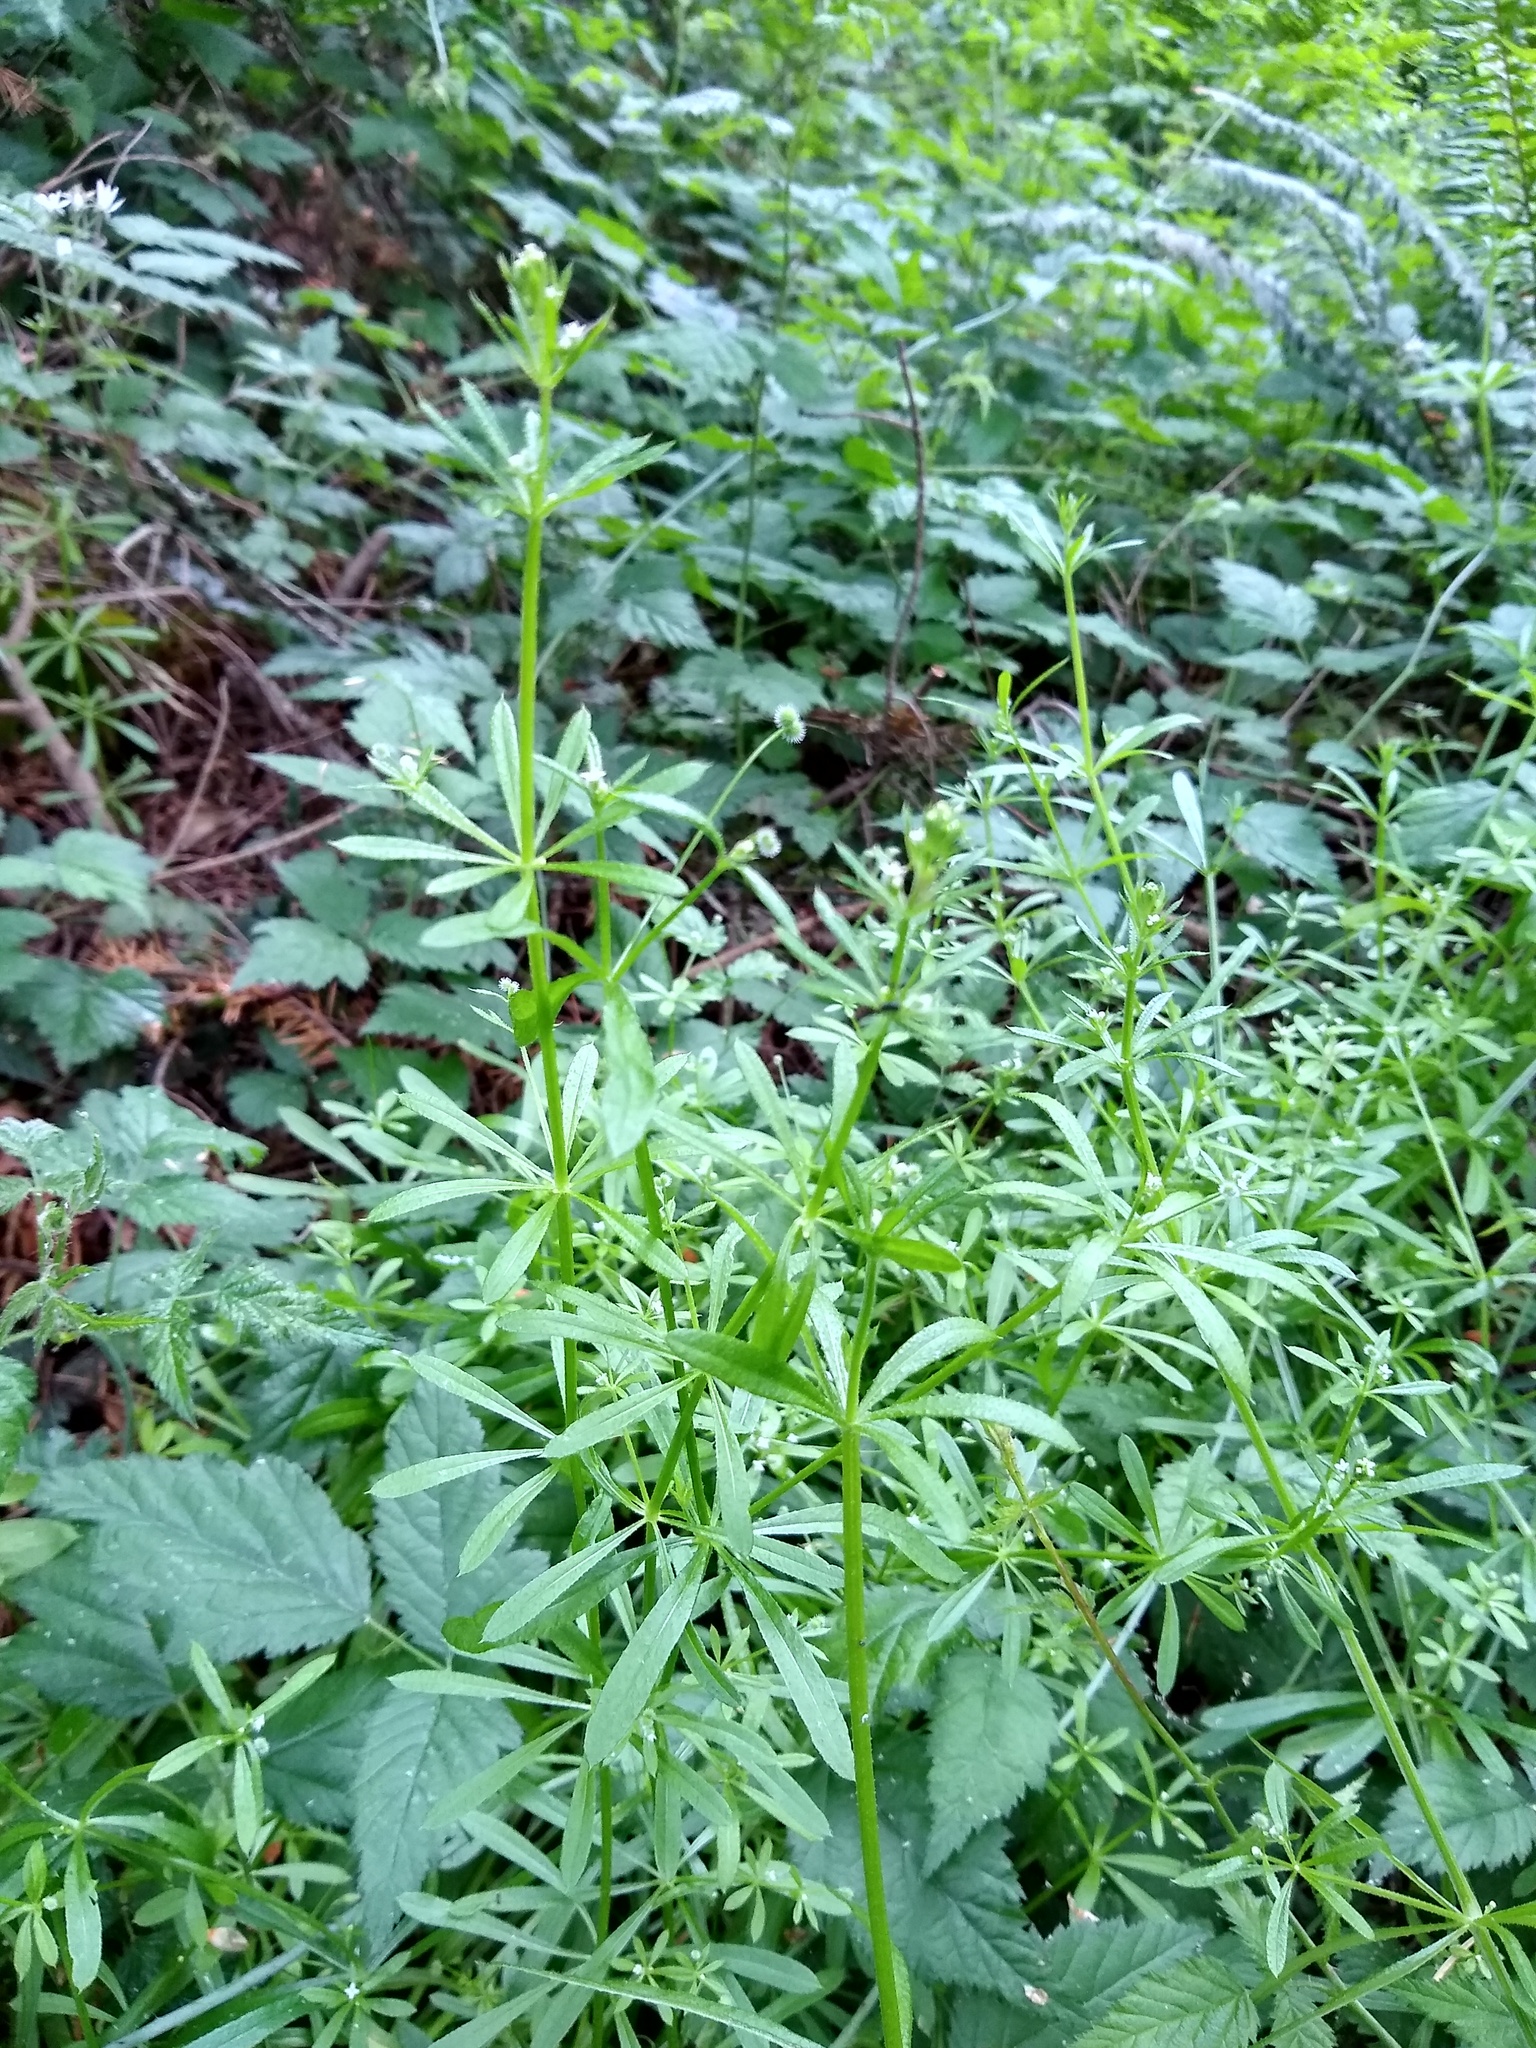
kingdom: Plantae
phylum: Tracheophyta
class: Magnoliopsida
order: Gentianales
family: Rubiaceae
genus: Galium
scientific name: Galium aparine
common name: Cleavers
